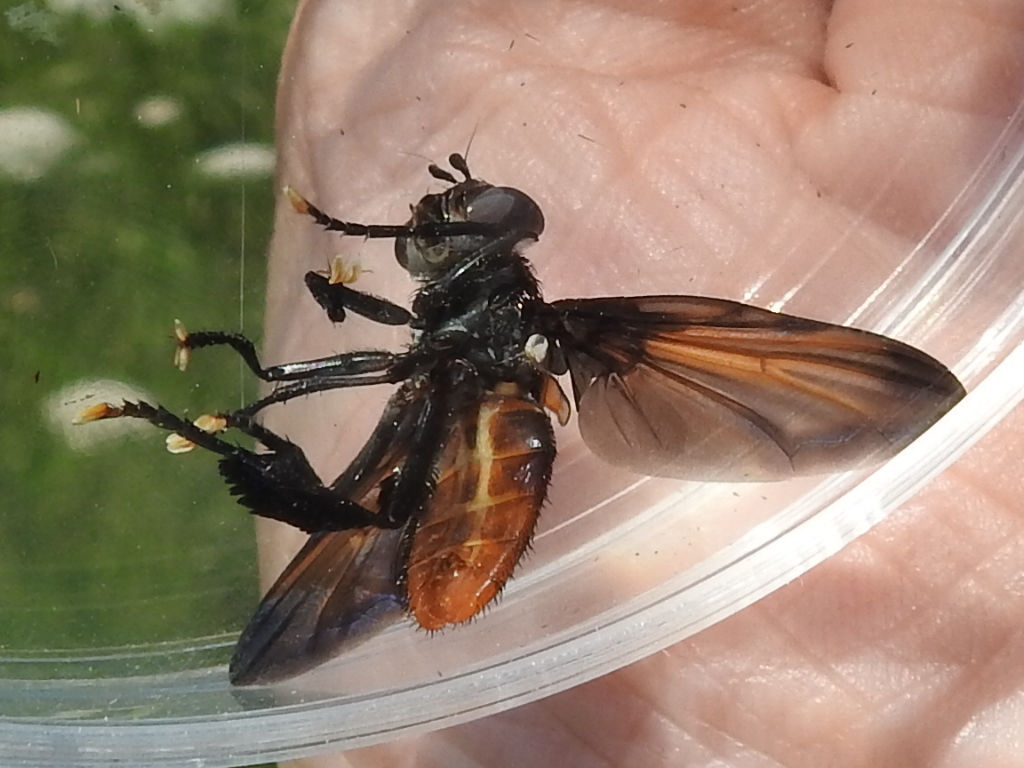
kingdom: Animalia
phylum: Arthropoda
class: Insecta
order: Diptera
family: Tachinidae
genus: Trichopoda
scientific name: Trichopoda lanipes
